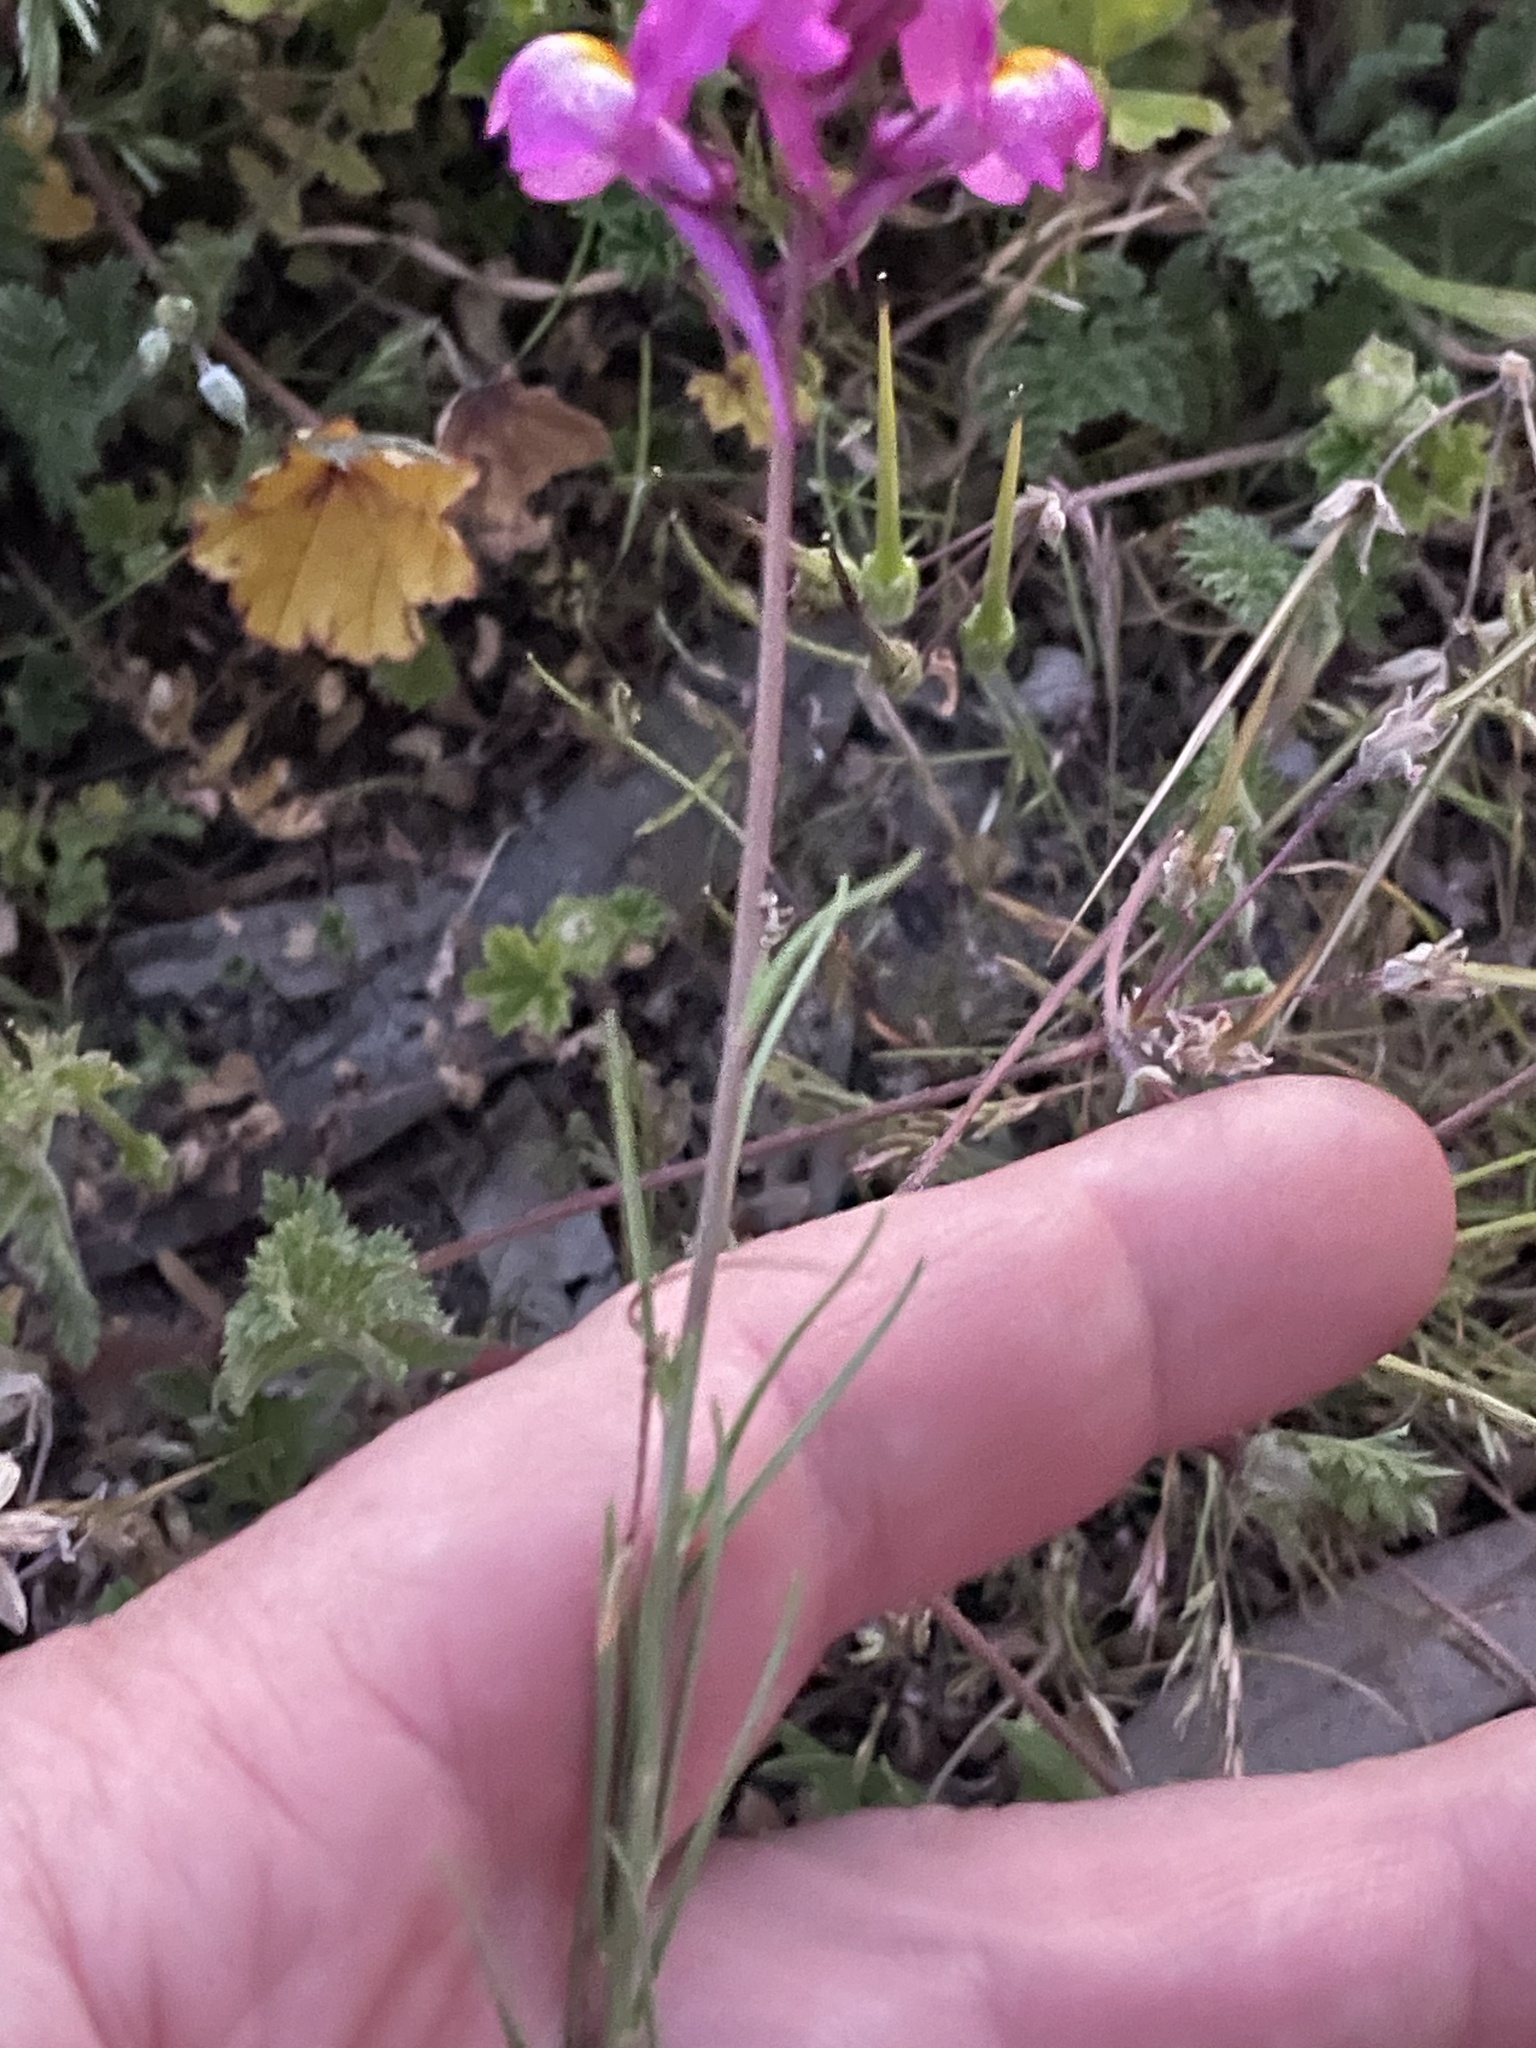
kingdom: Plantae
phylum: Tracheophyta
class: Magnoliopsida
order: Lamiales
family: Plantaginaceae
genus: Linaria
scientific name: Linaria maroccana
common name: Moroccan toadflax
